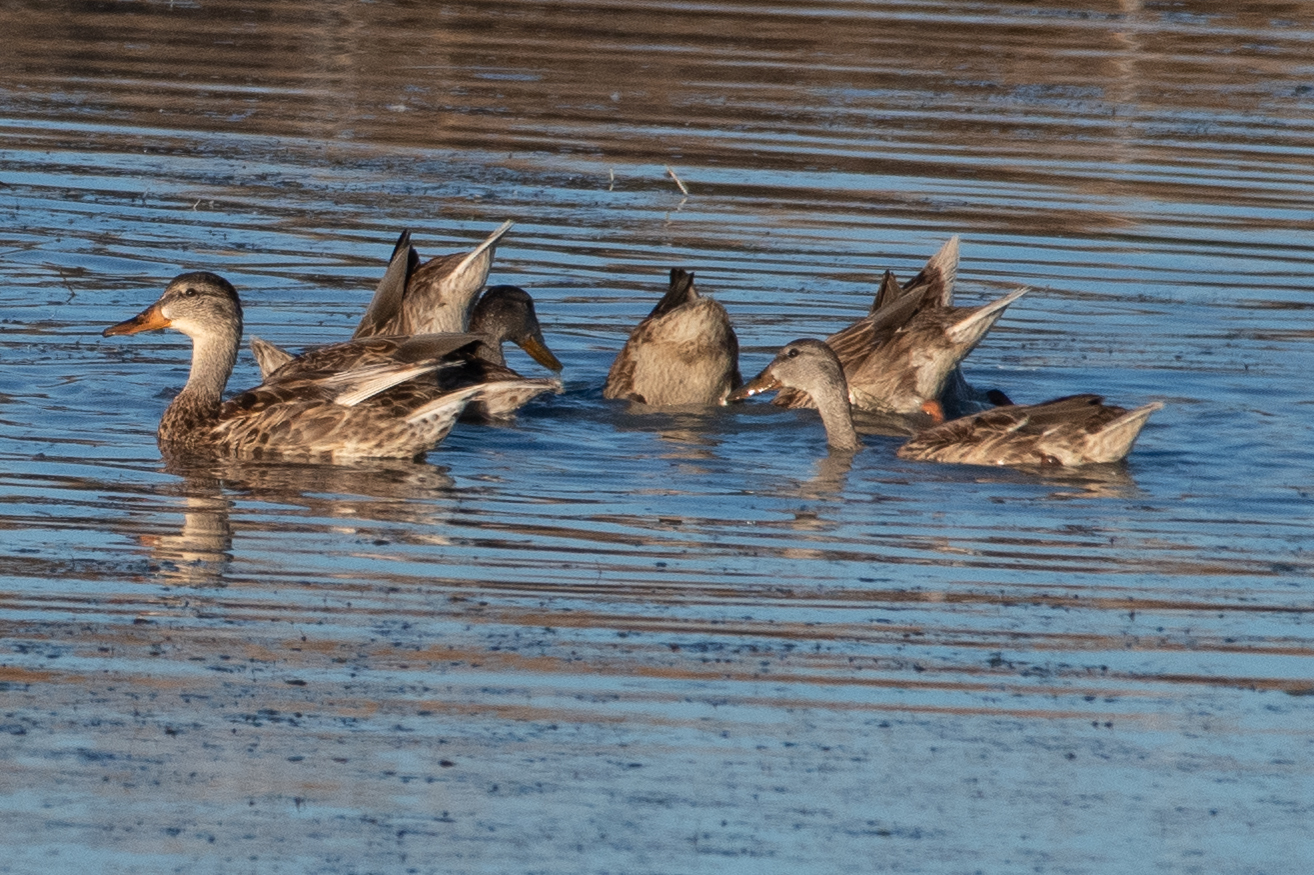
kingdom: Animalia
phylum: Chordata
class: Aves
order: Anseriformes
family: Anatidae
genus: Anas
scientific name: Anas platyrhynchos
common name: Mallard
